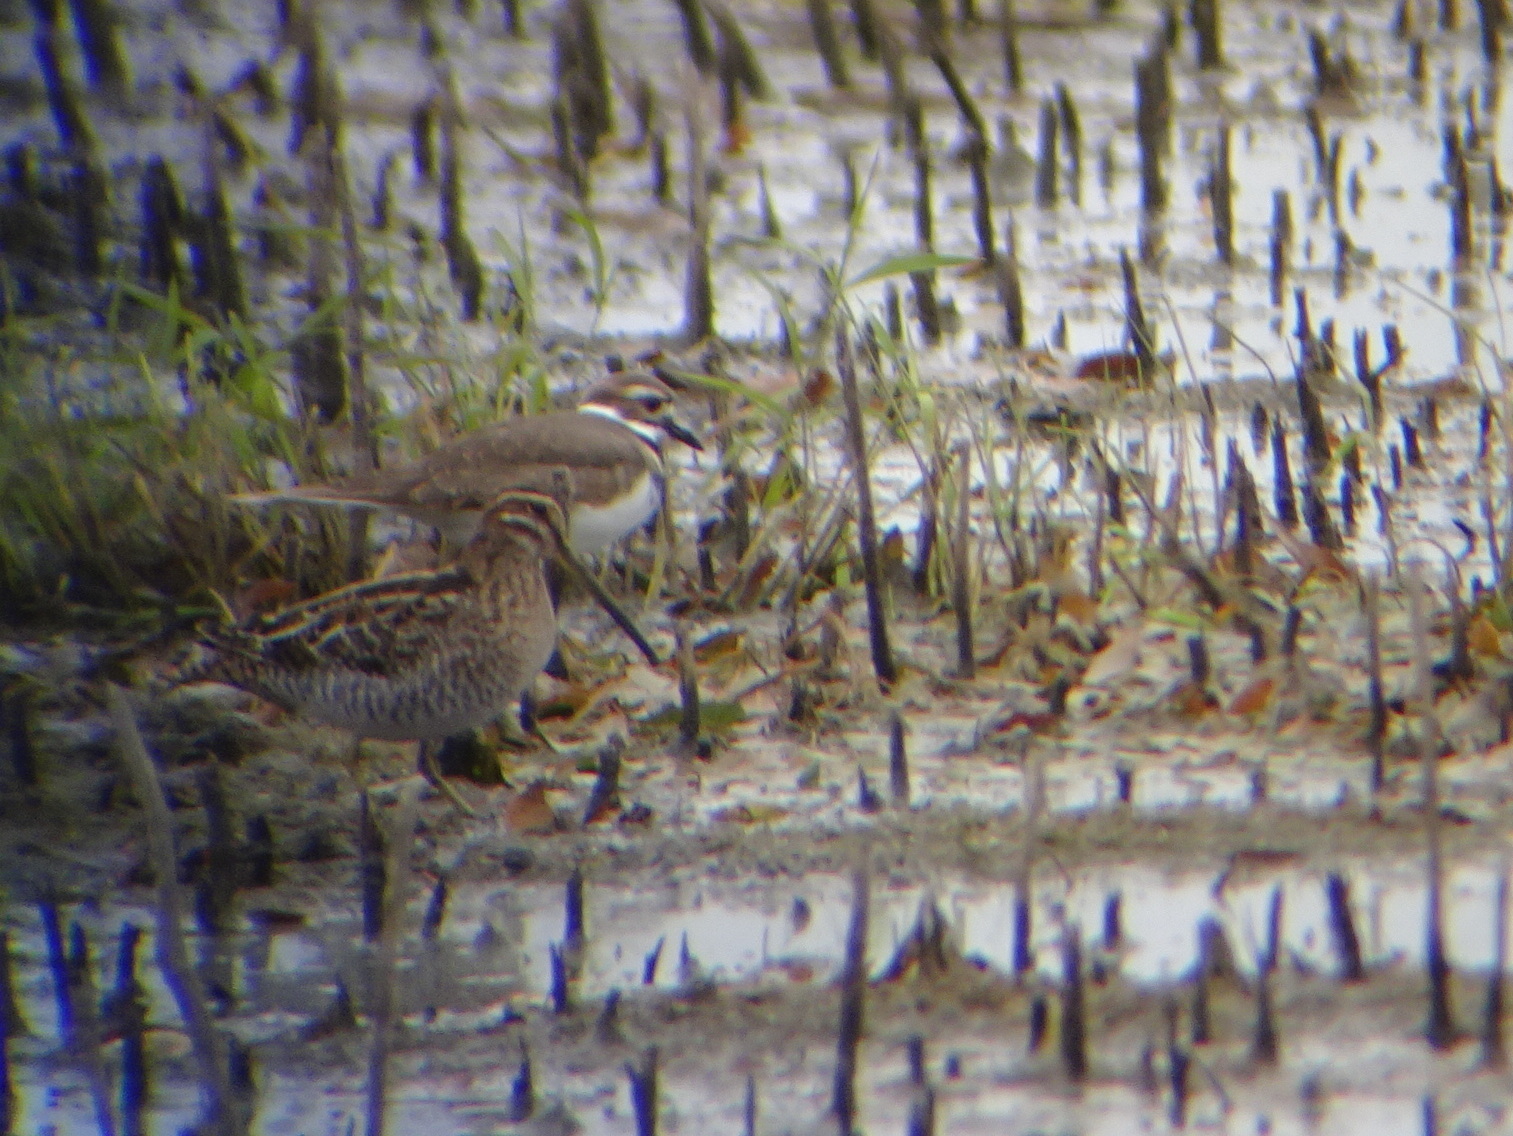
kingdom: Animalia
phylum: Chordata
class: Aves
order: Charadriiformes
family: Scolopacidae
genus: Gallinago
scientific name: Gallinago delicata
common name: Wilson's snipe
